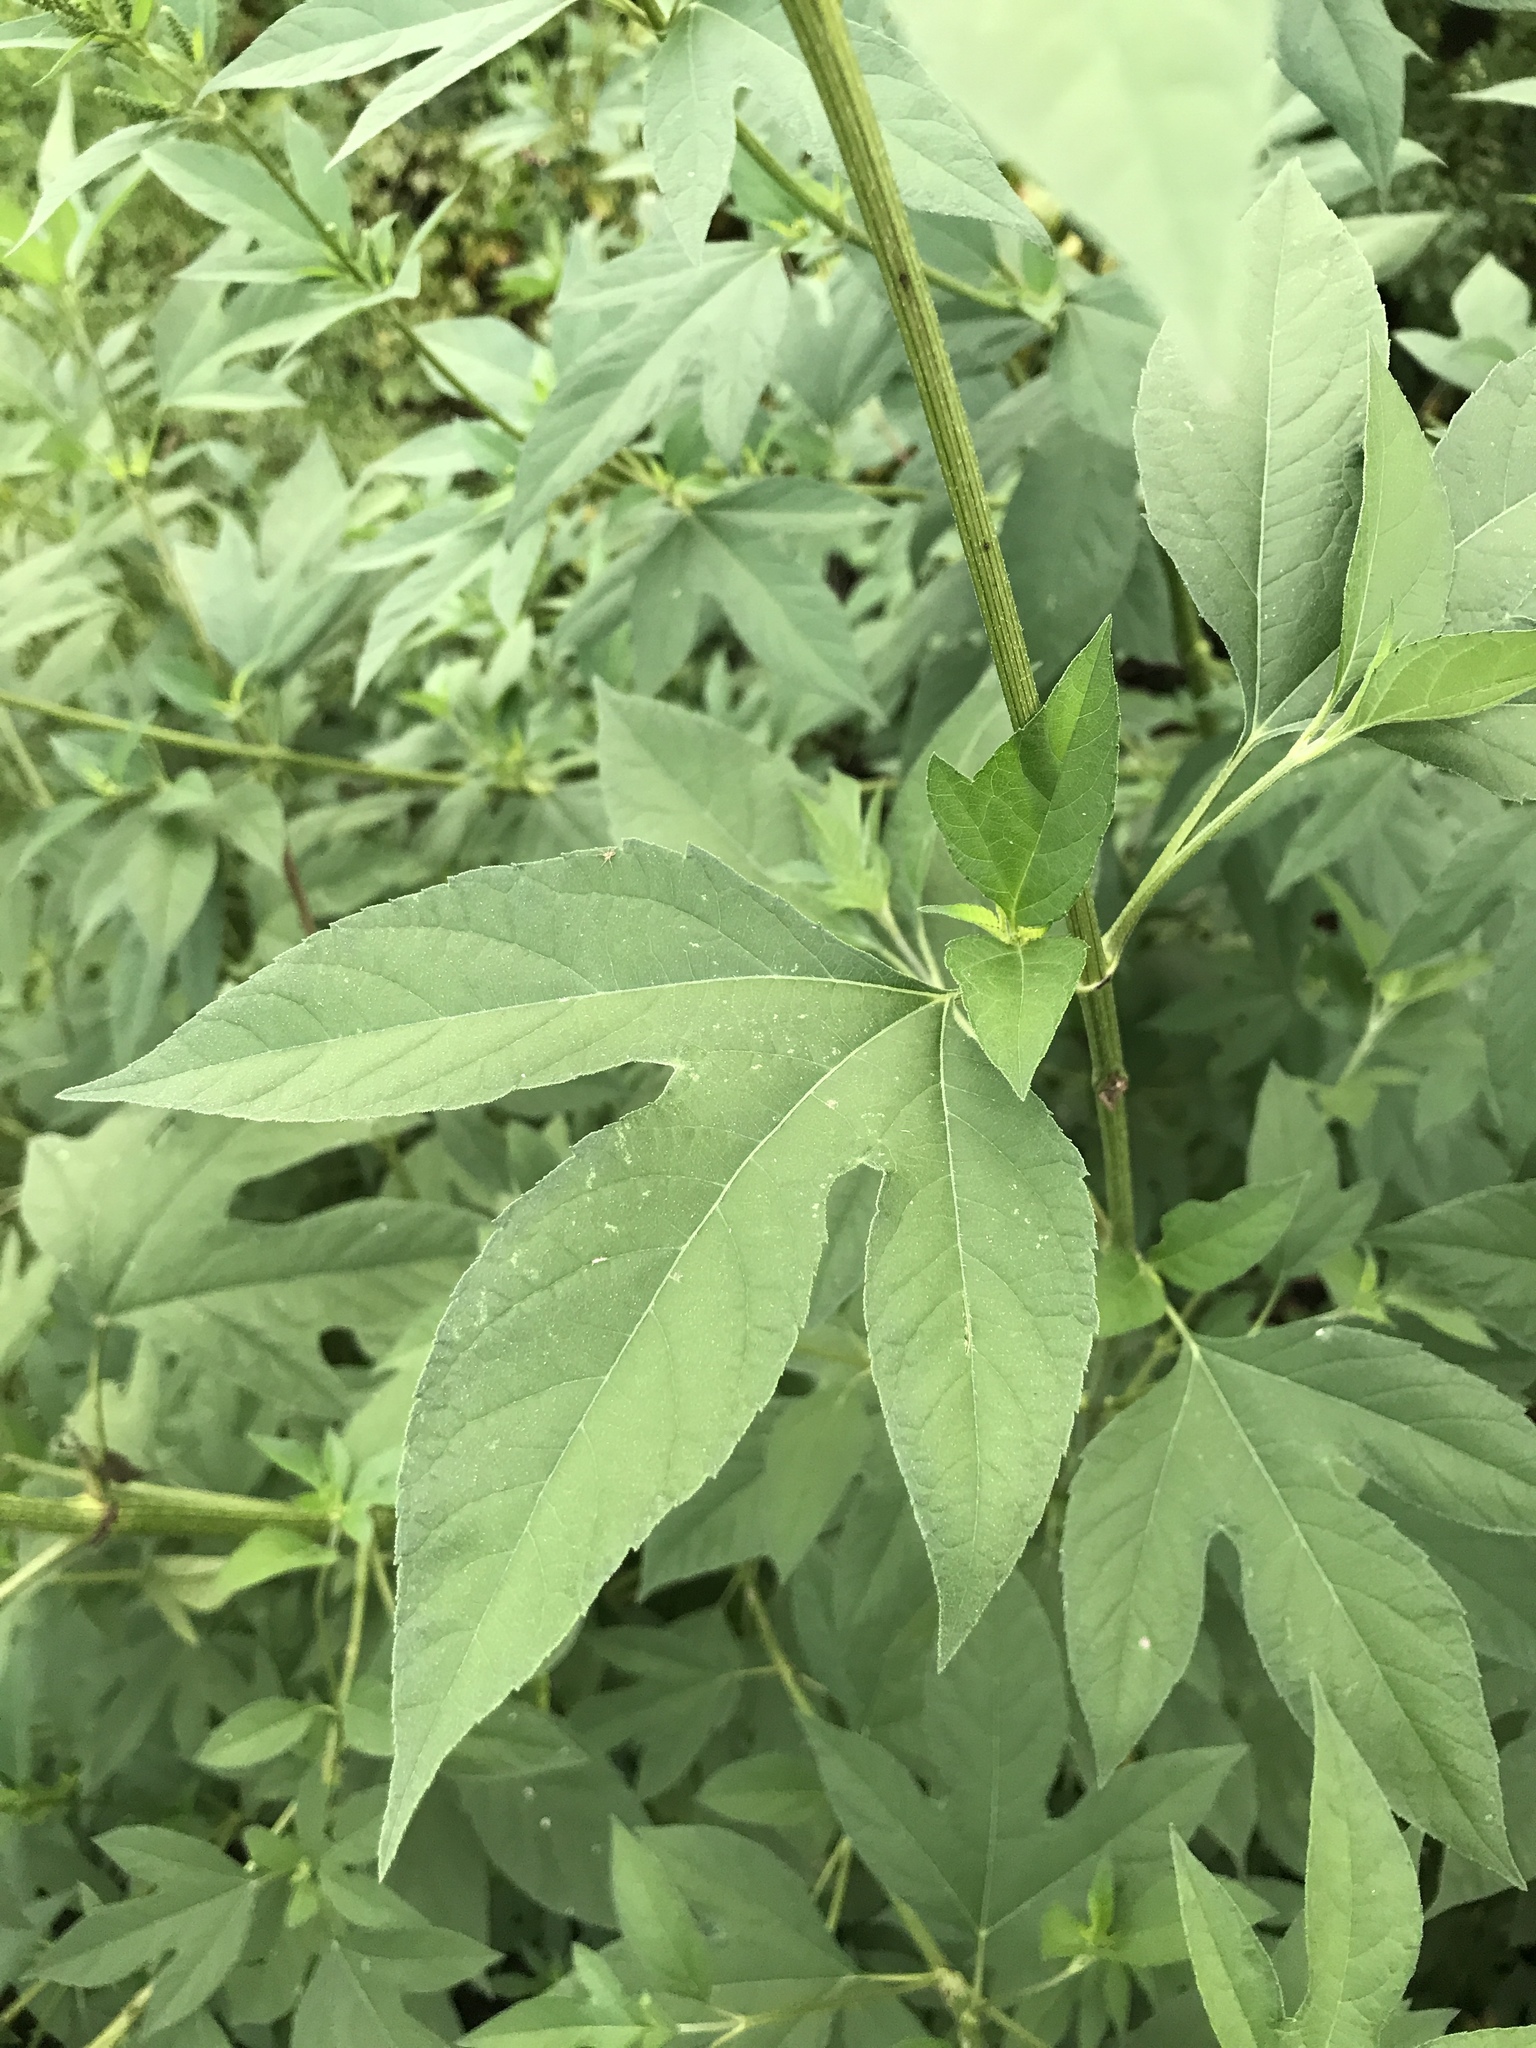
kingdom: Plantae
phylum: Tracheophyta
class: Magnoliopsida
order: Asterales
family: Asteraceae
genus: Ambrosia
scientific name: Ambrosia trifida
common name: Giant ragweed
